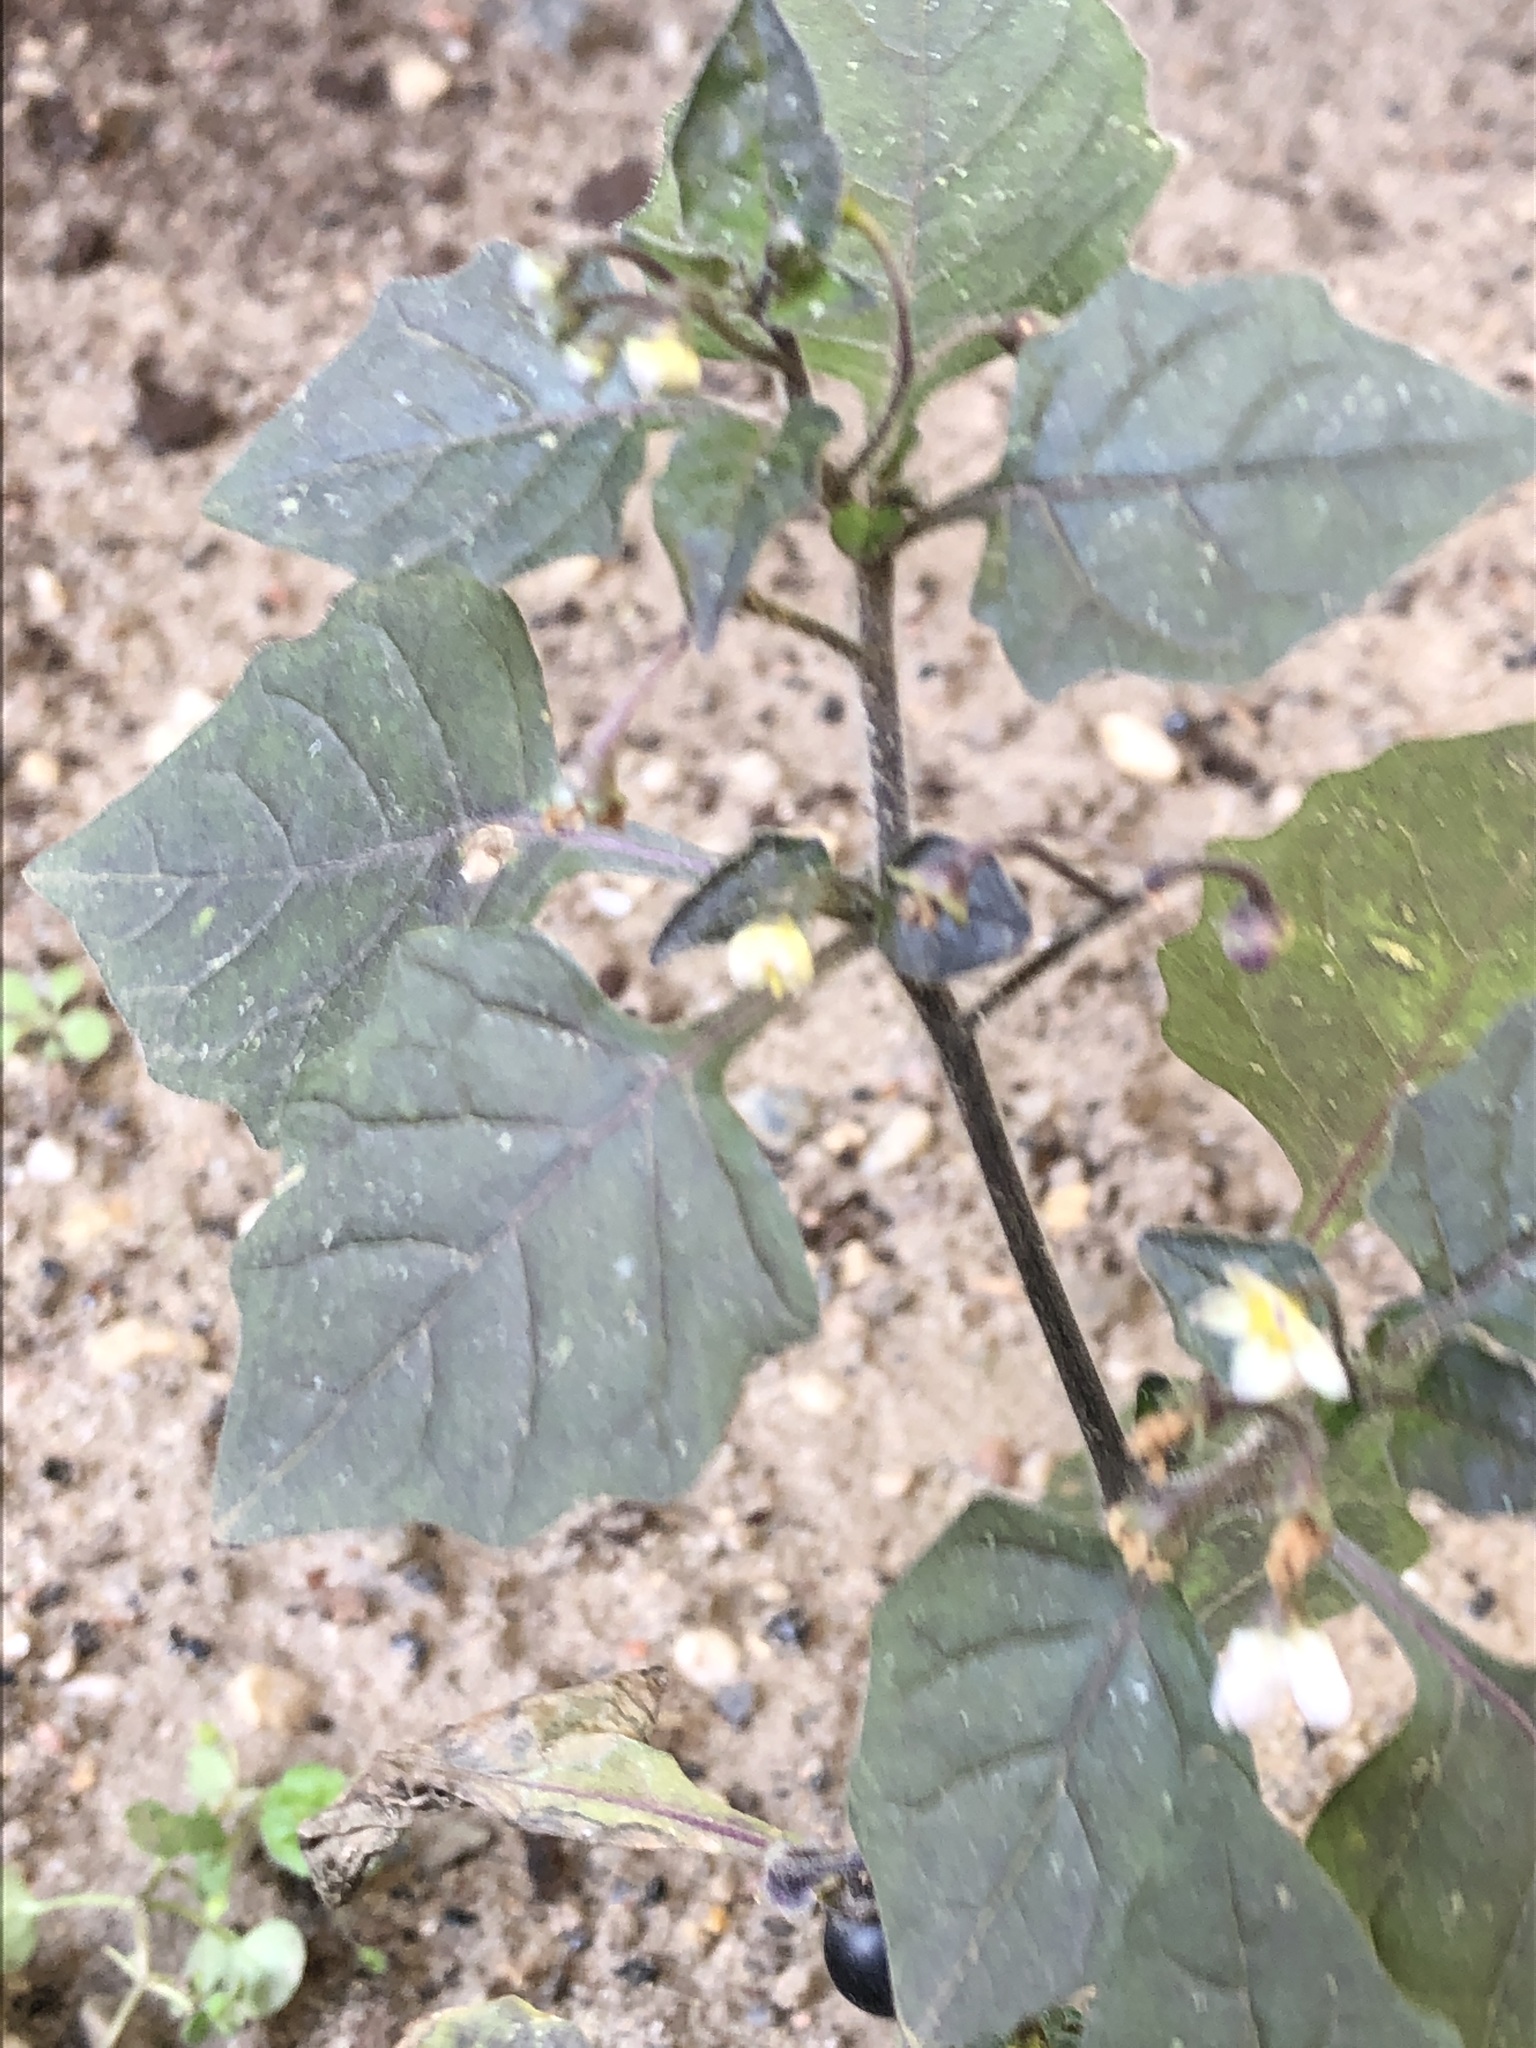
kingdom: Plantae
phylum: Tracheophyta
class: Magnoliopsida
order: Solanales
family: Solanaceae
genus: Solanum
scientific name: Solanum nigrum
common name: Black nightshade
